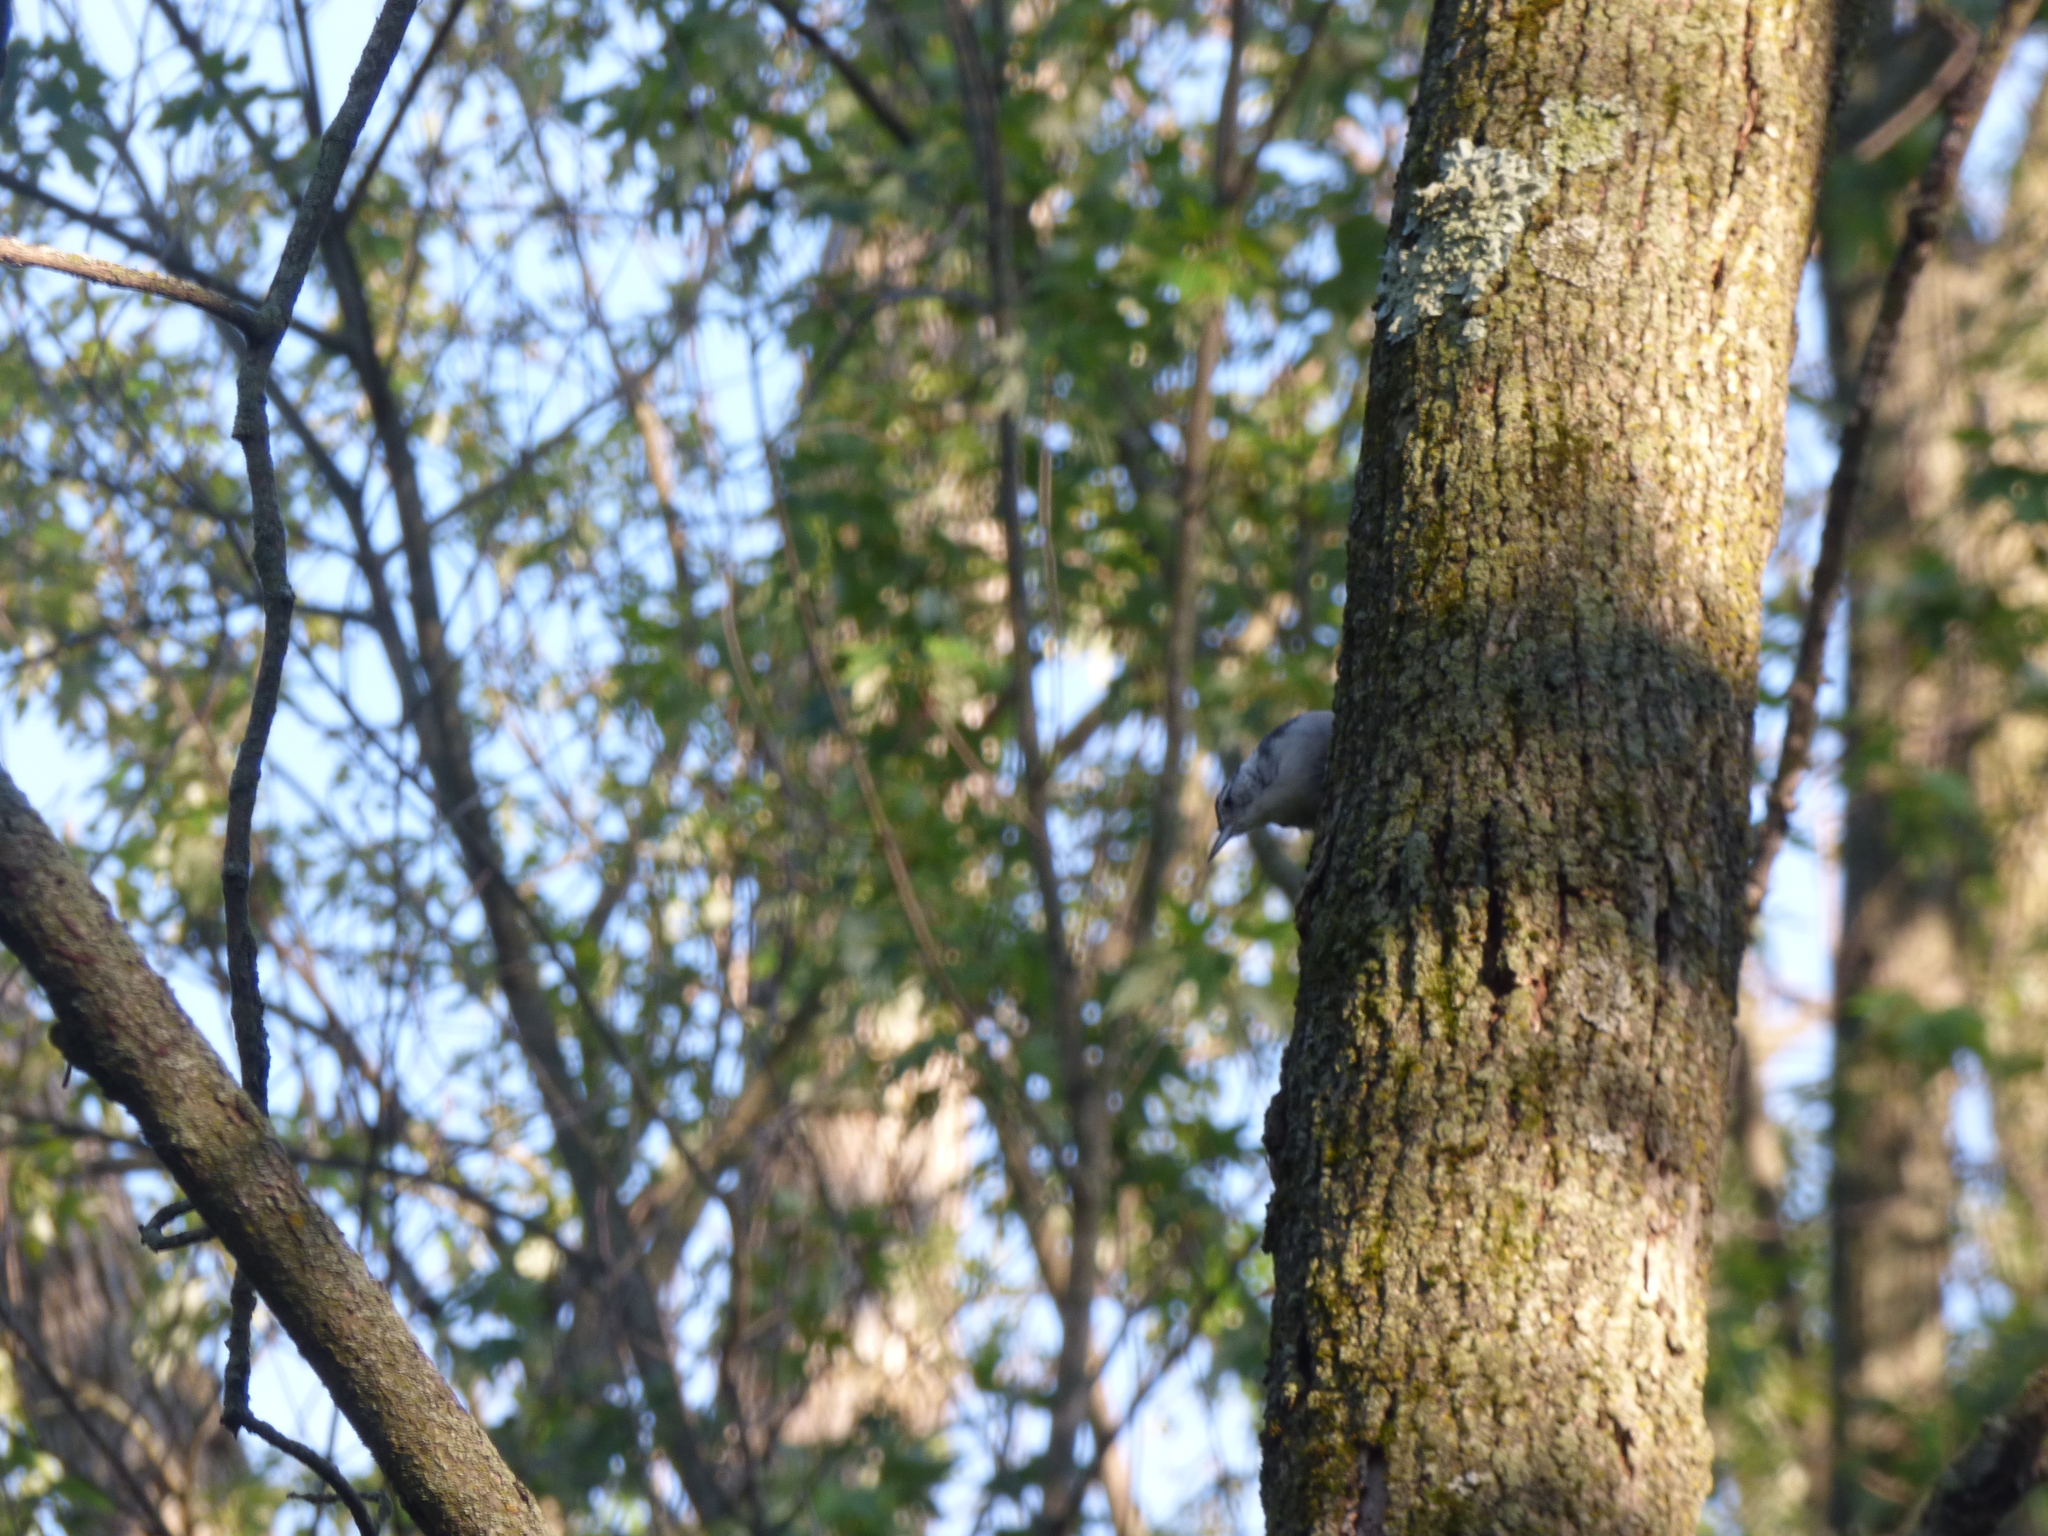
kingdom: Animalia
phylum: Chordata
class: Aves
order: Passeriformes
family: Sittidae
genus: Sitta
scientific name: Sitta carolinensis
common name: White-breasted nuthatch
